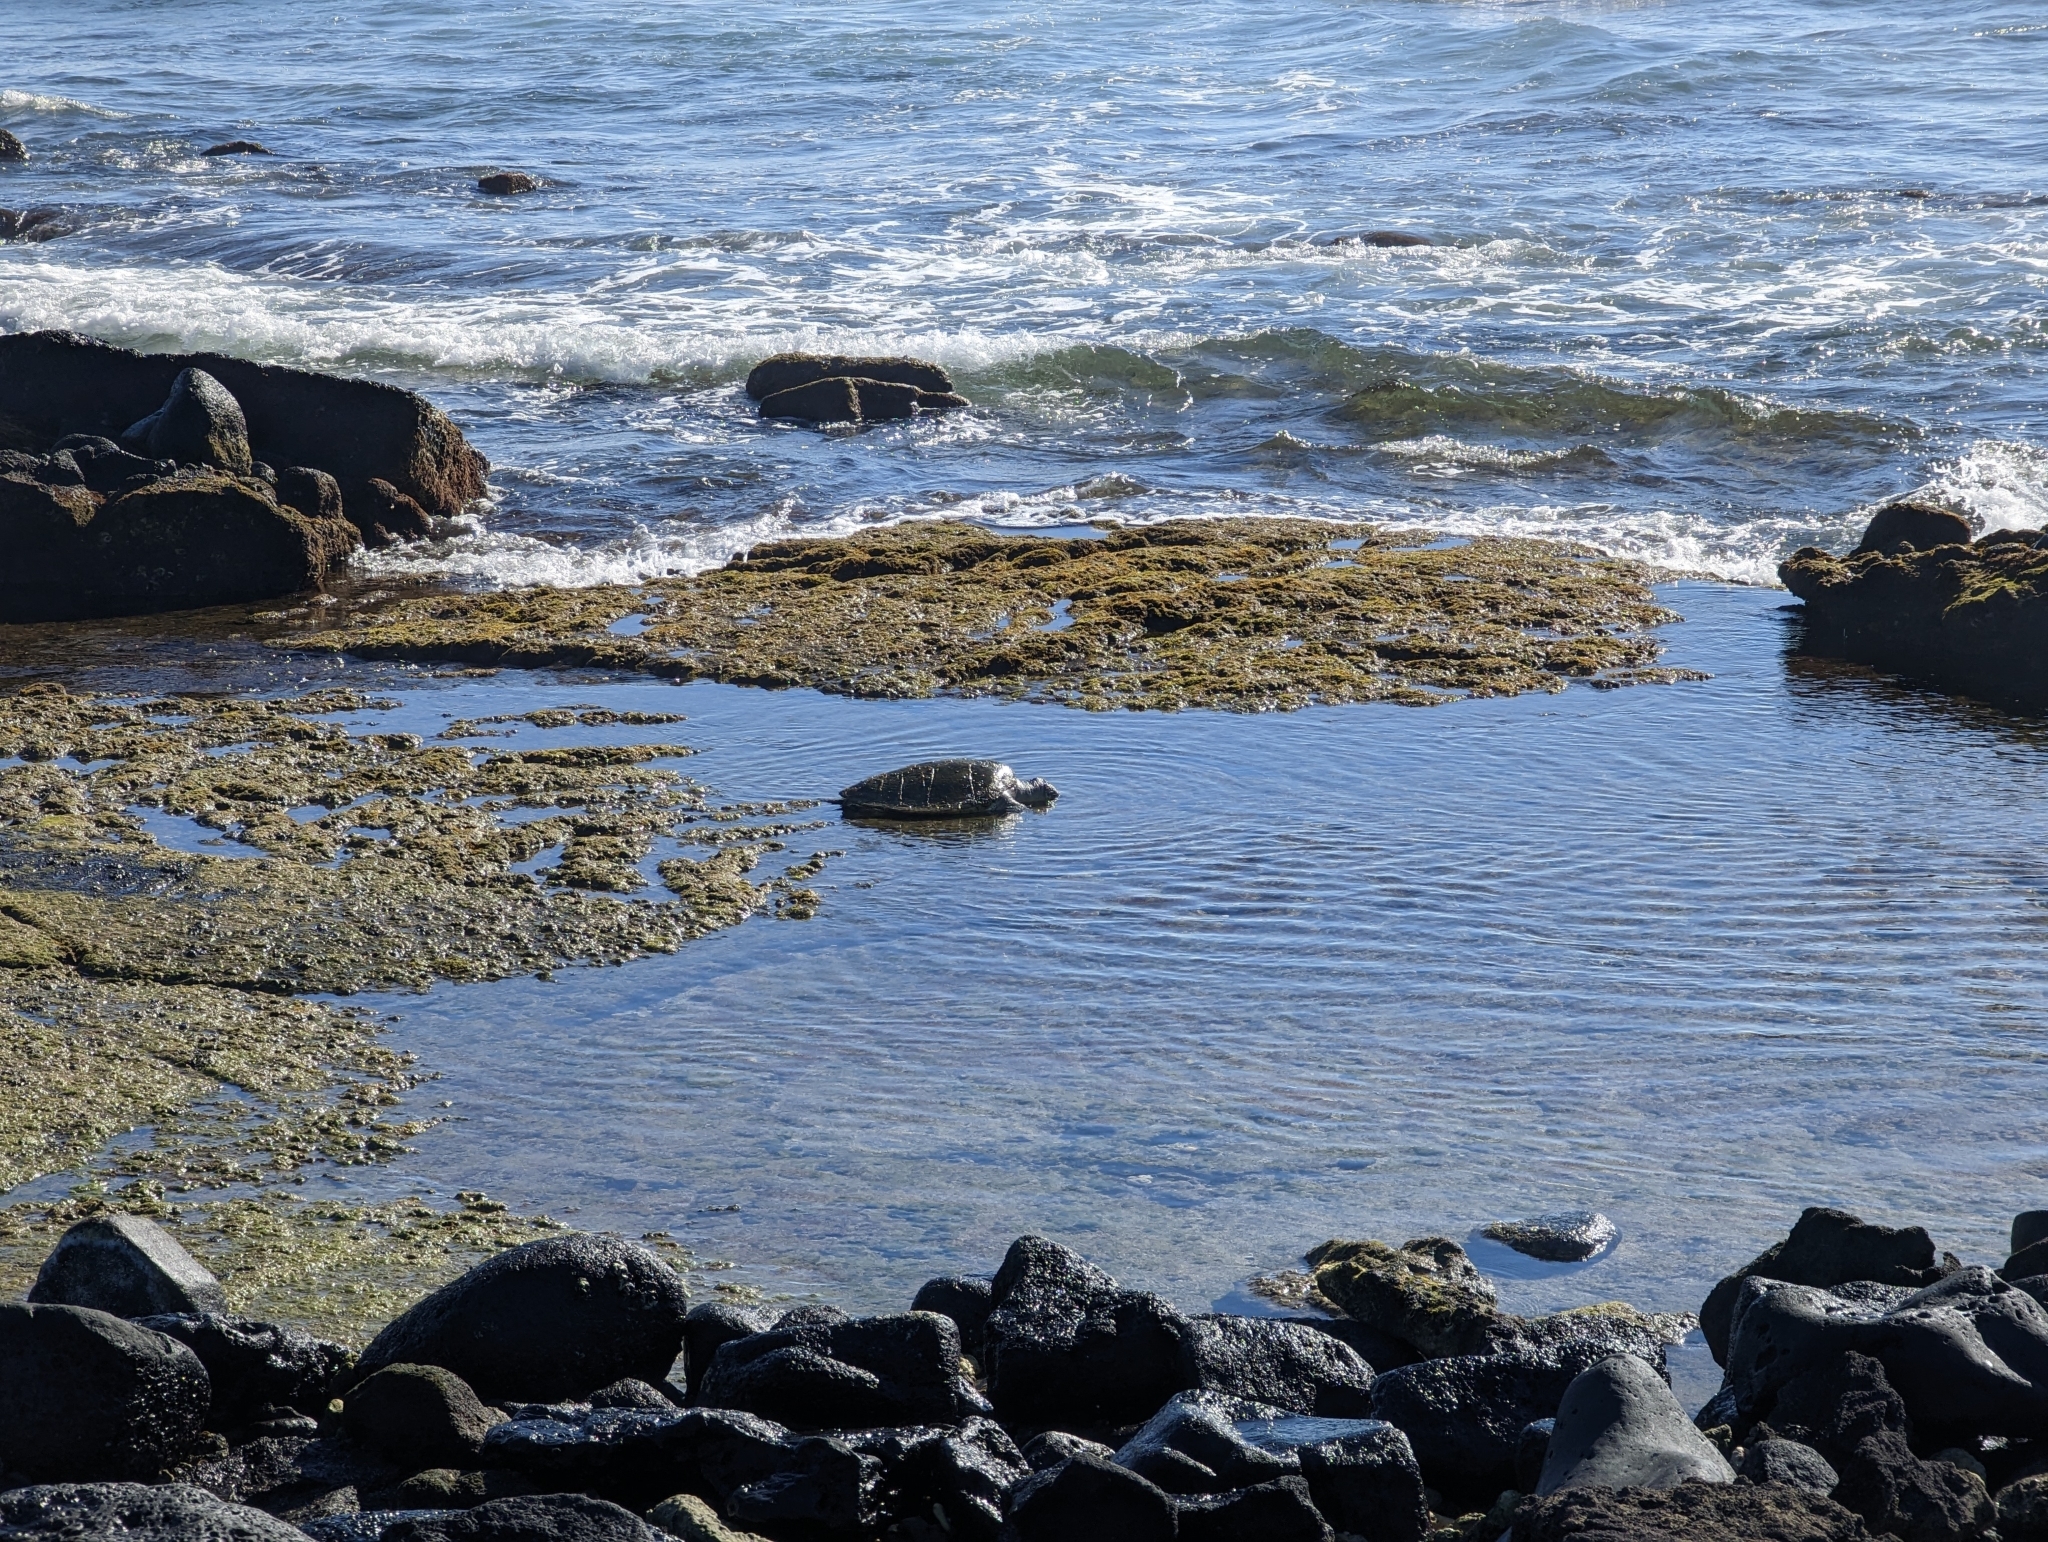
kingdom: Animalia
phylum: Chordata
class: Testudines
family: Cheloniidae
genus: Chelonia
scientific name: Chelonia mydas
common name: Green turtle
